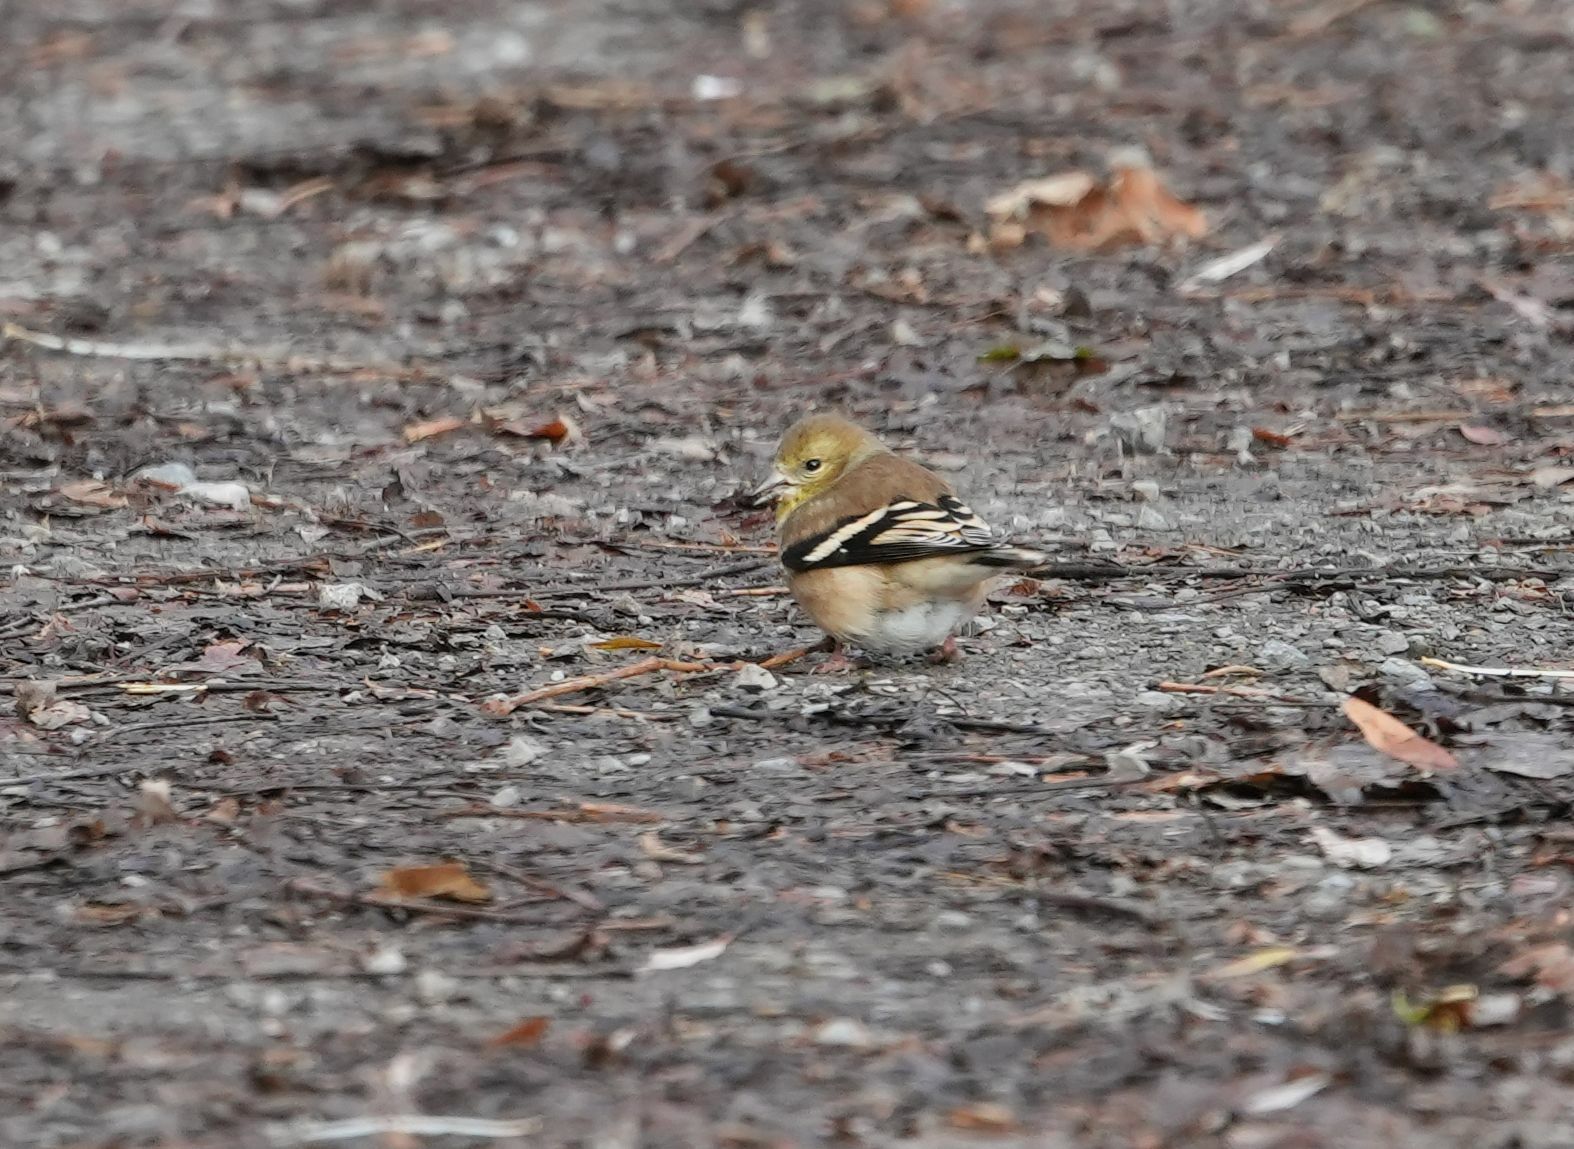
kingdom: Animalia
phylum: Chordata
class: Aves
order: Passeriformes
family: Fringillidae
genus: Spinus
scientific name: Spinus tristis
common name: American goldfinch
